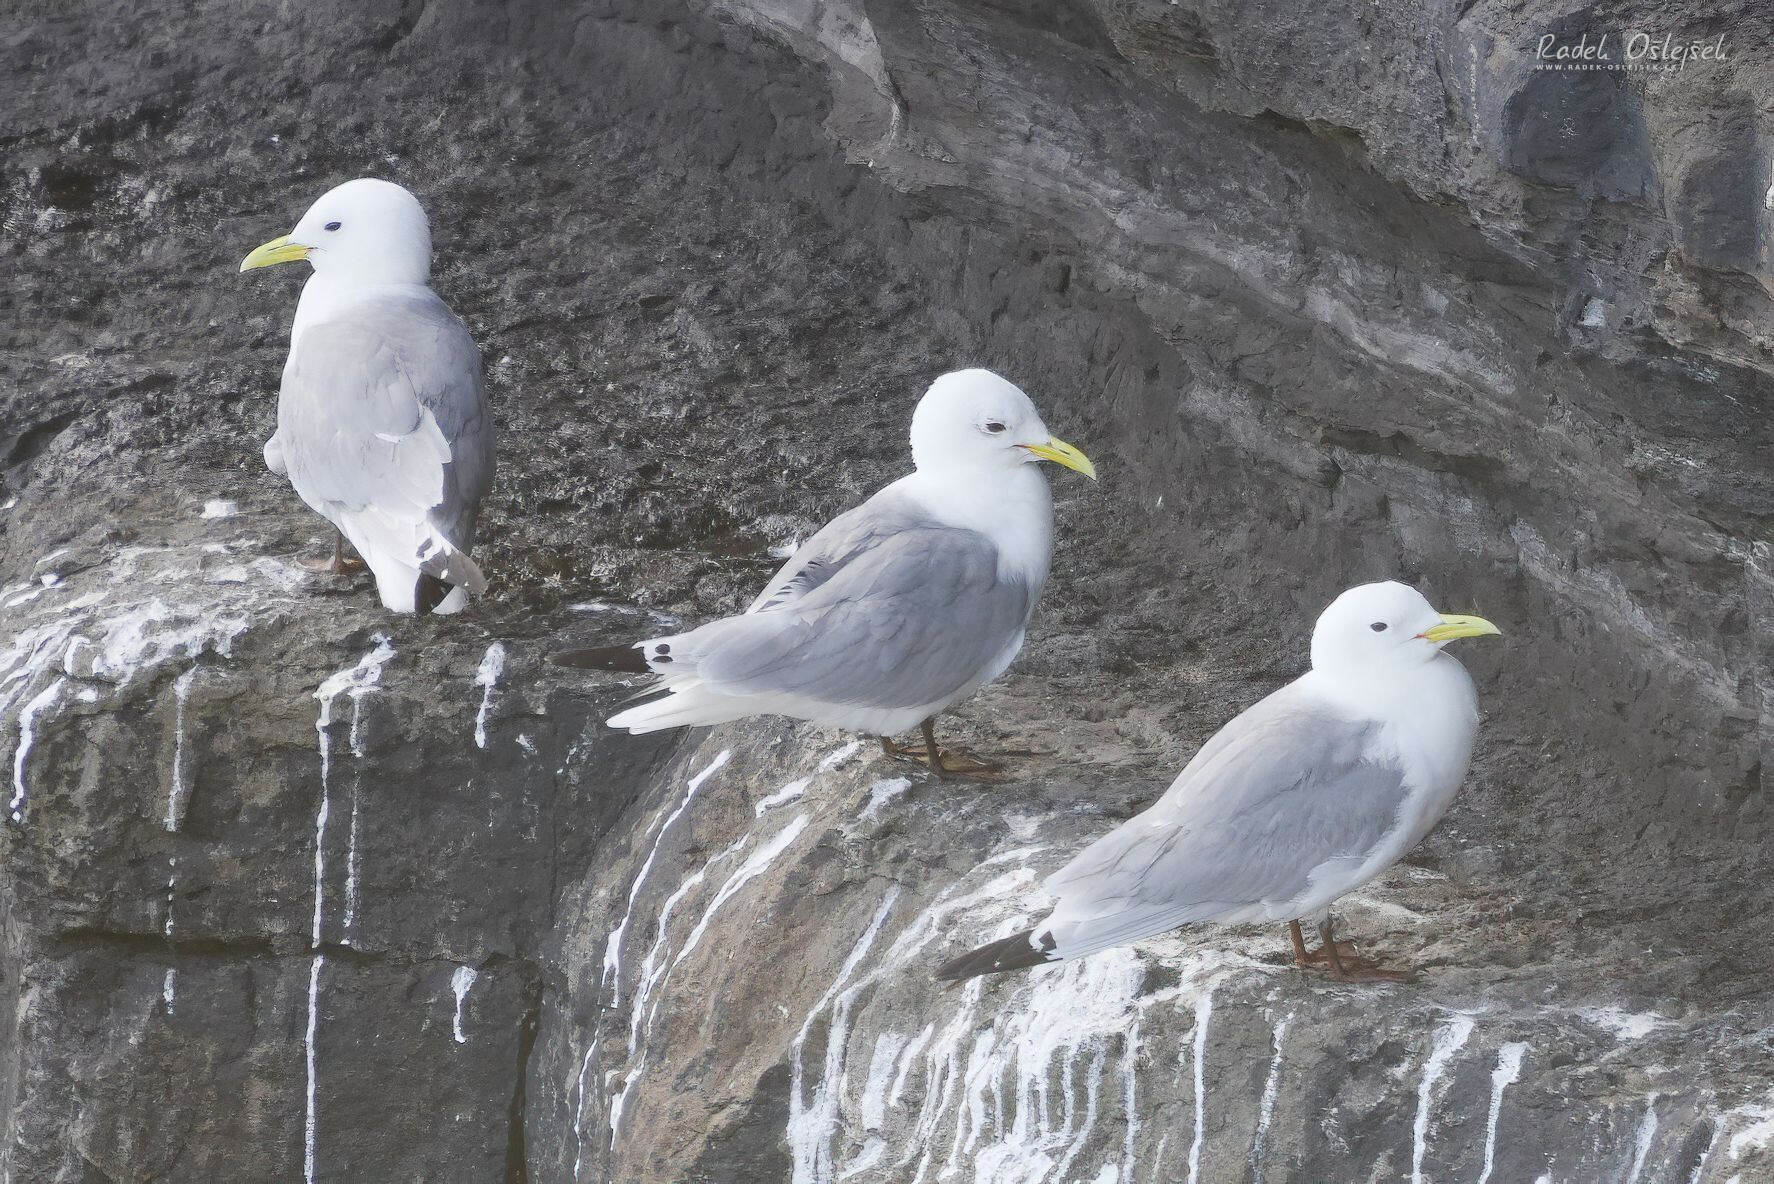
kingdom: Animalia
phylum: Chordata
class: Aves
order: Charadriiformes
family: Laridae
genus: Rissa
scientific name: Rissa tridactyla
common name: Black-legged kittiwake
